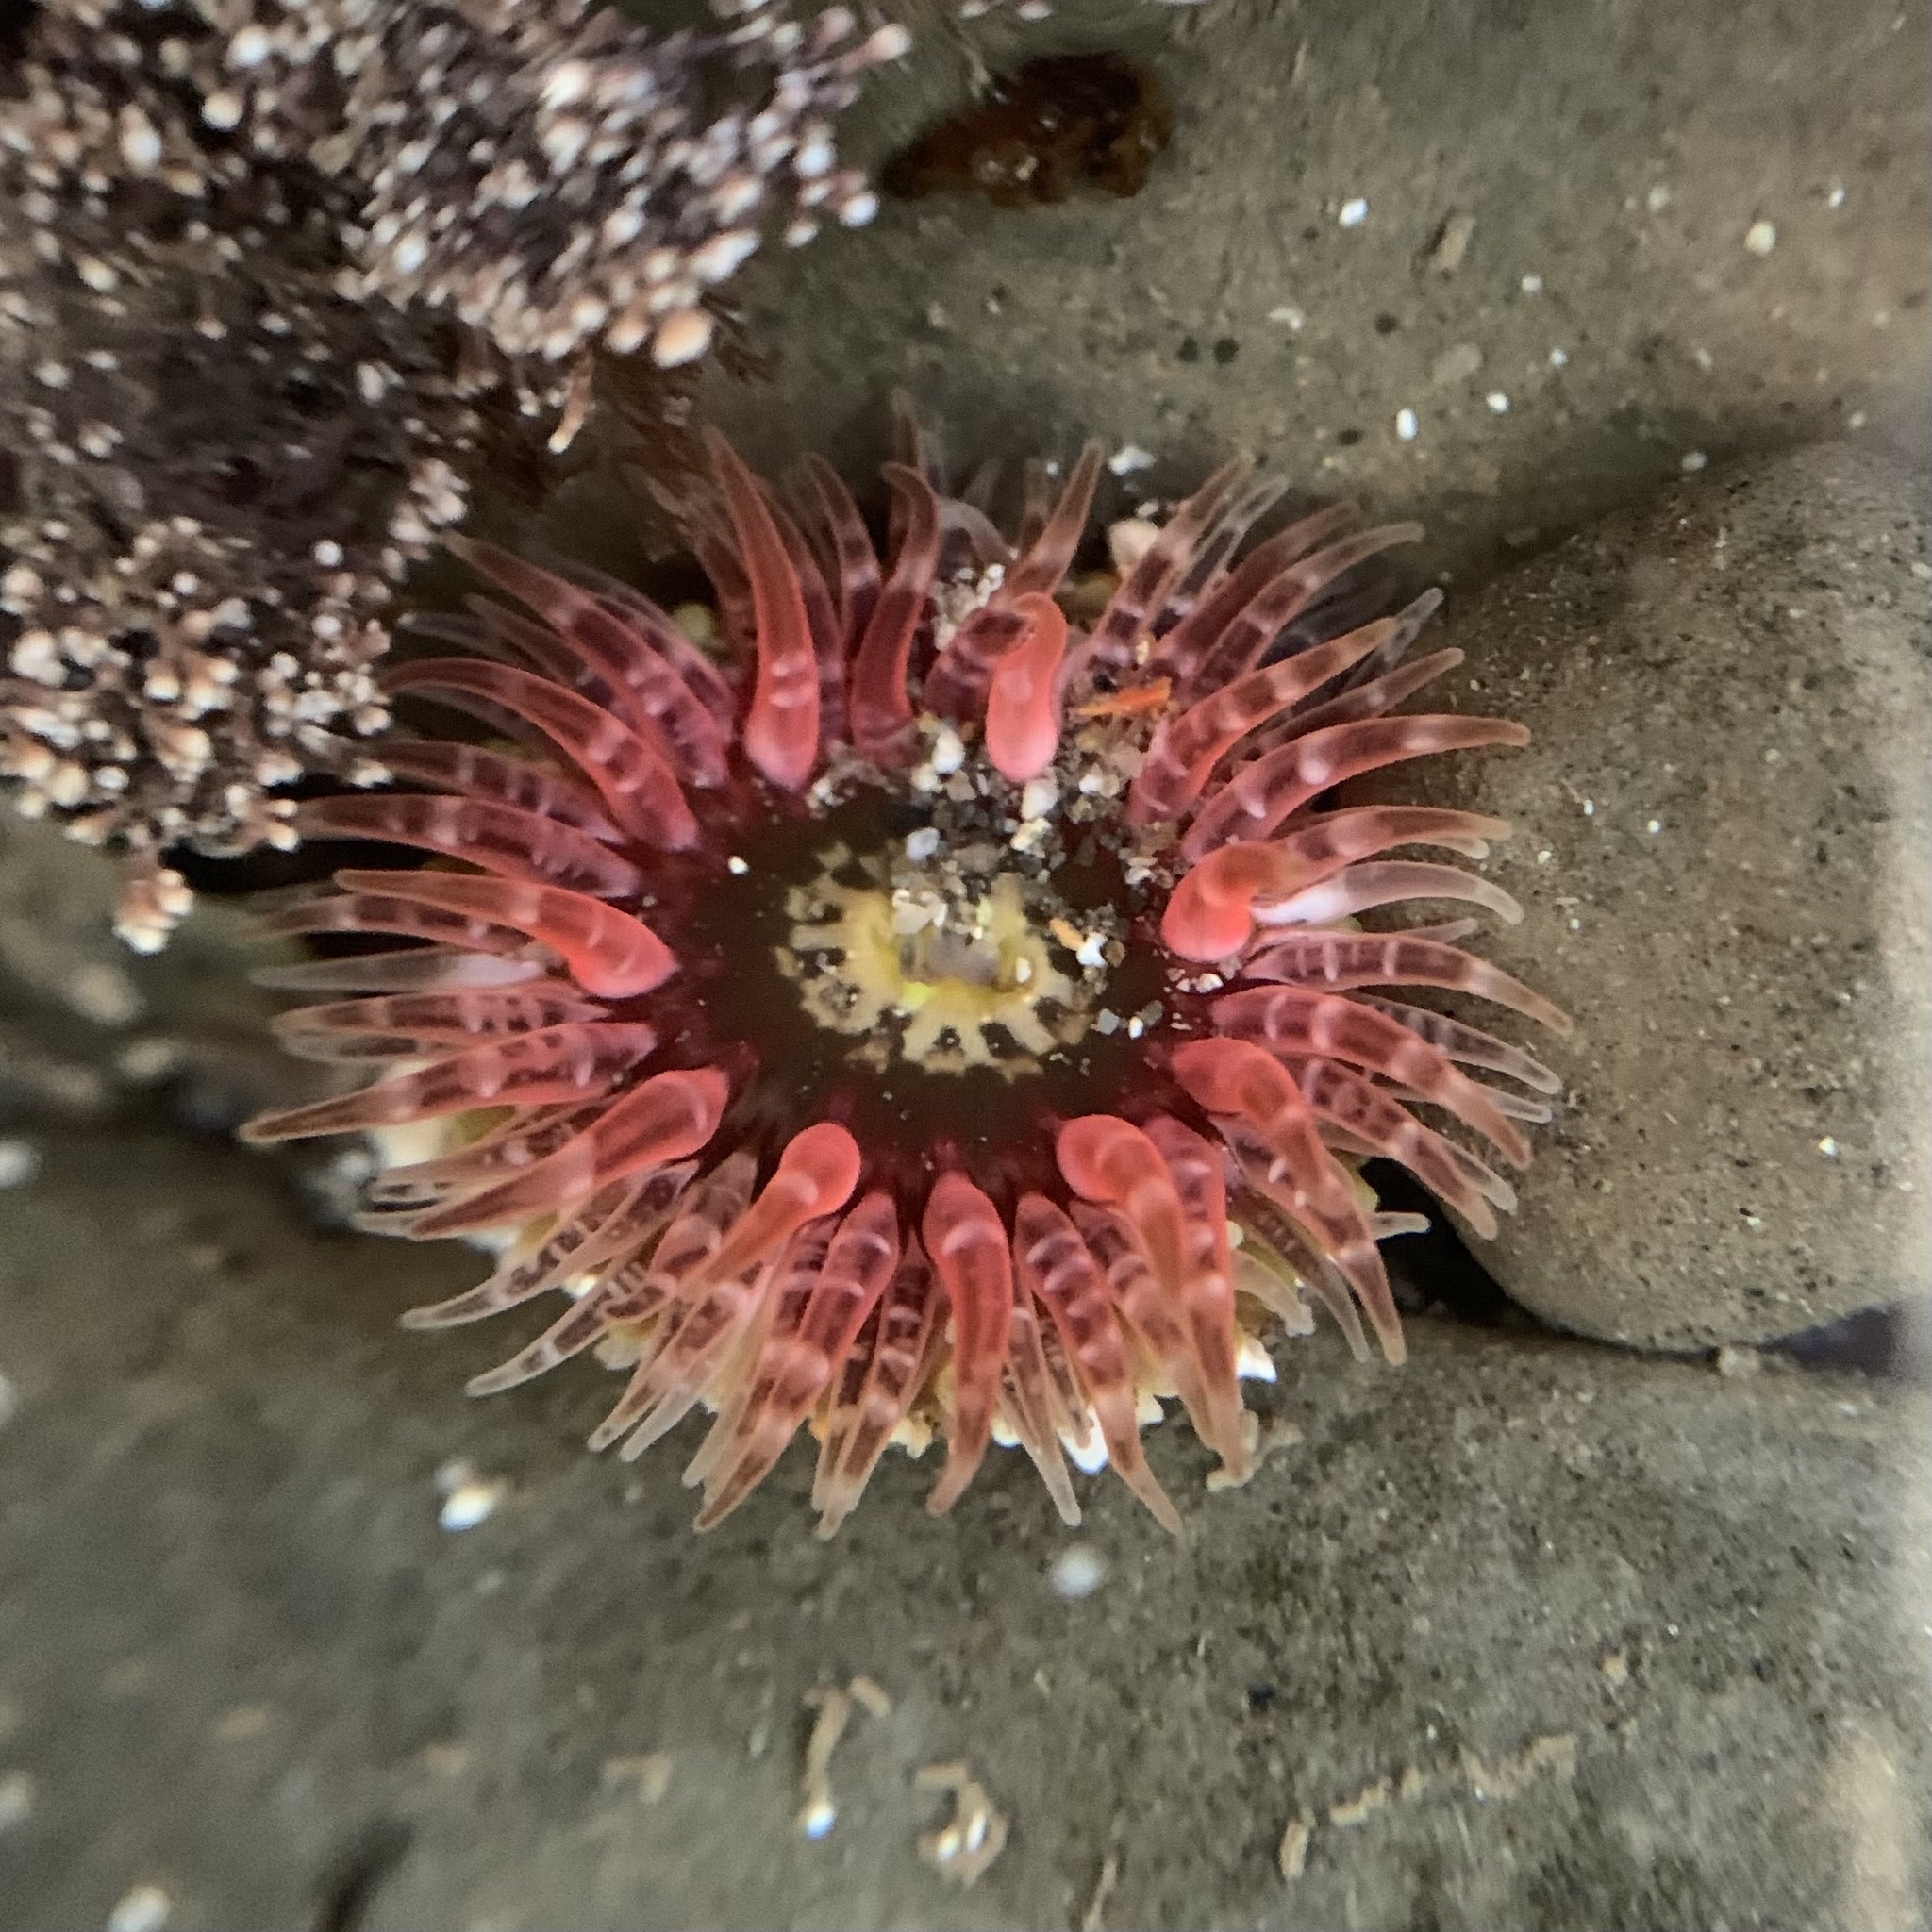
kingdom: Animalia
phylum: Cnidaria
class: Anthozoa
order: Actiniaria
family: Actiniidae
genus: Anthopleura
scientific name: Anthopleura artemisia
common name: Buried sea anemone
